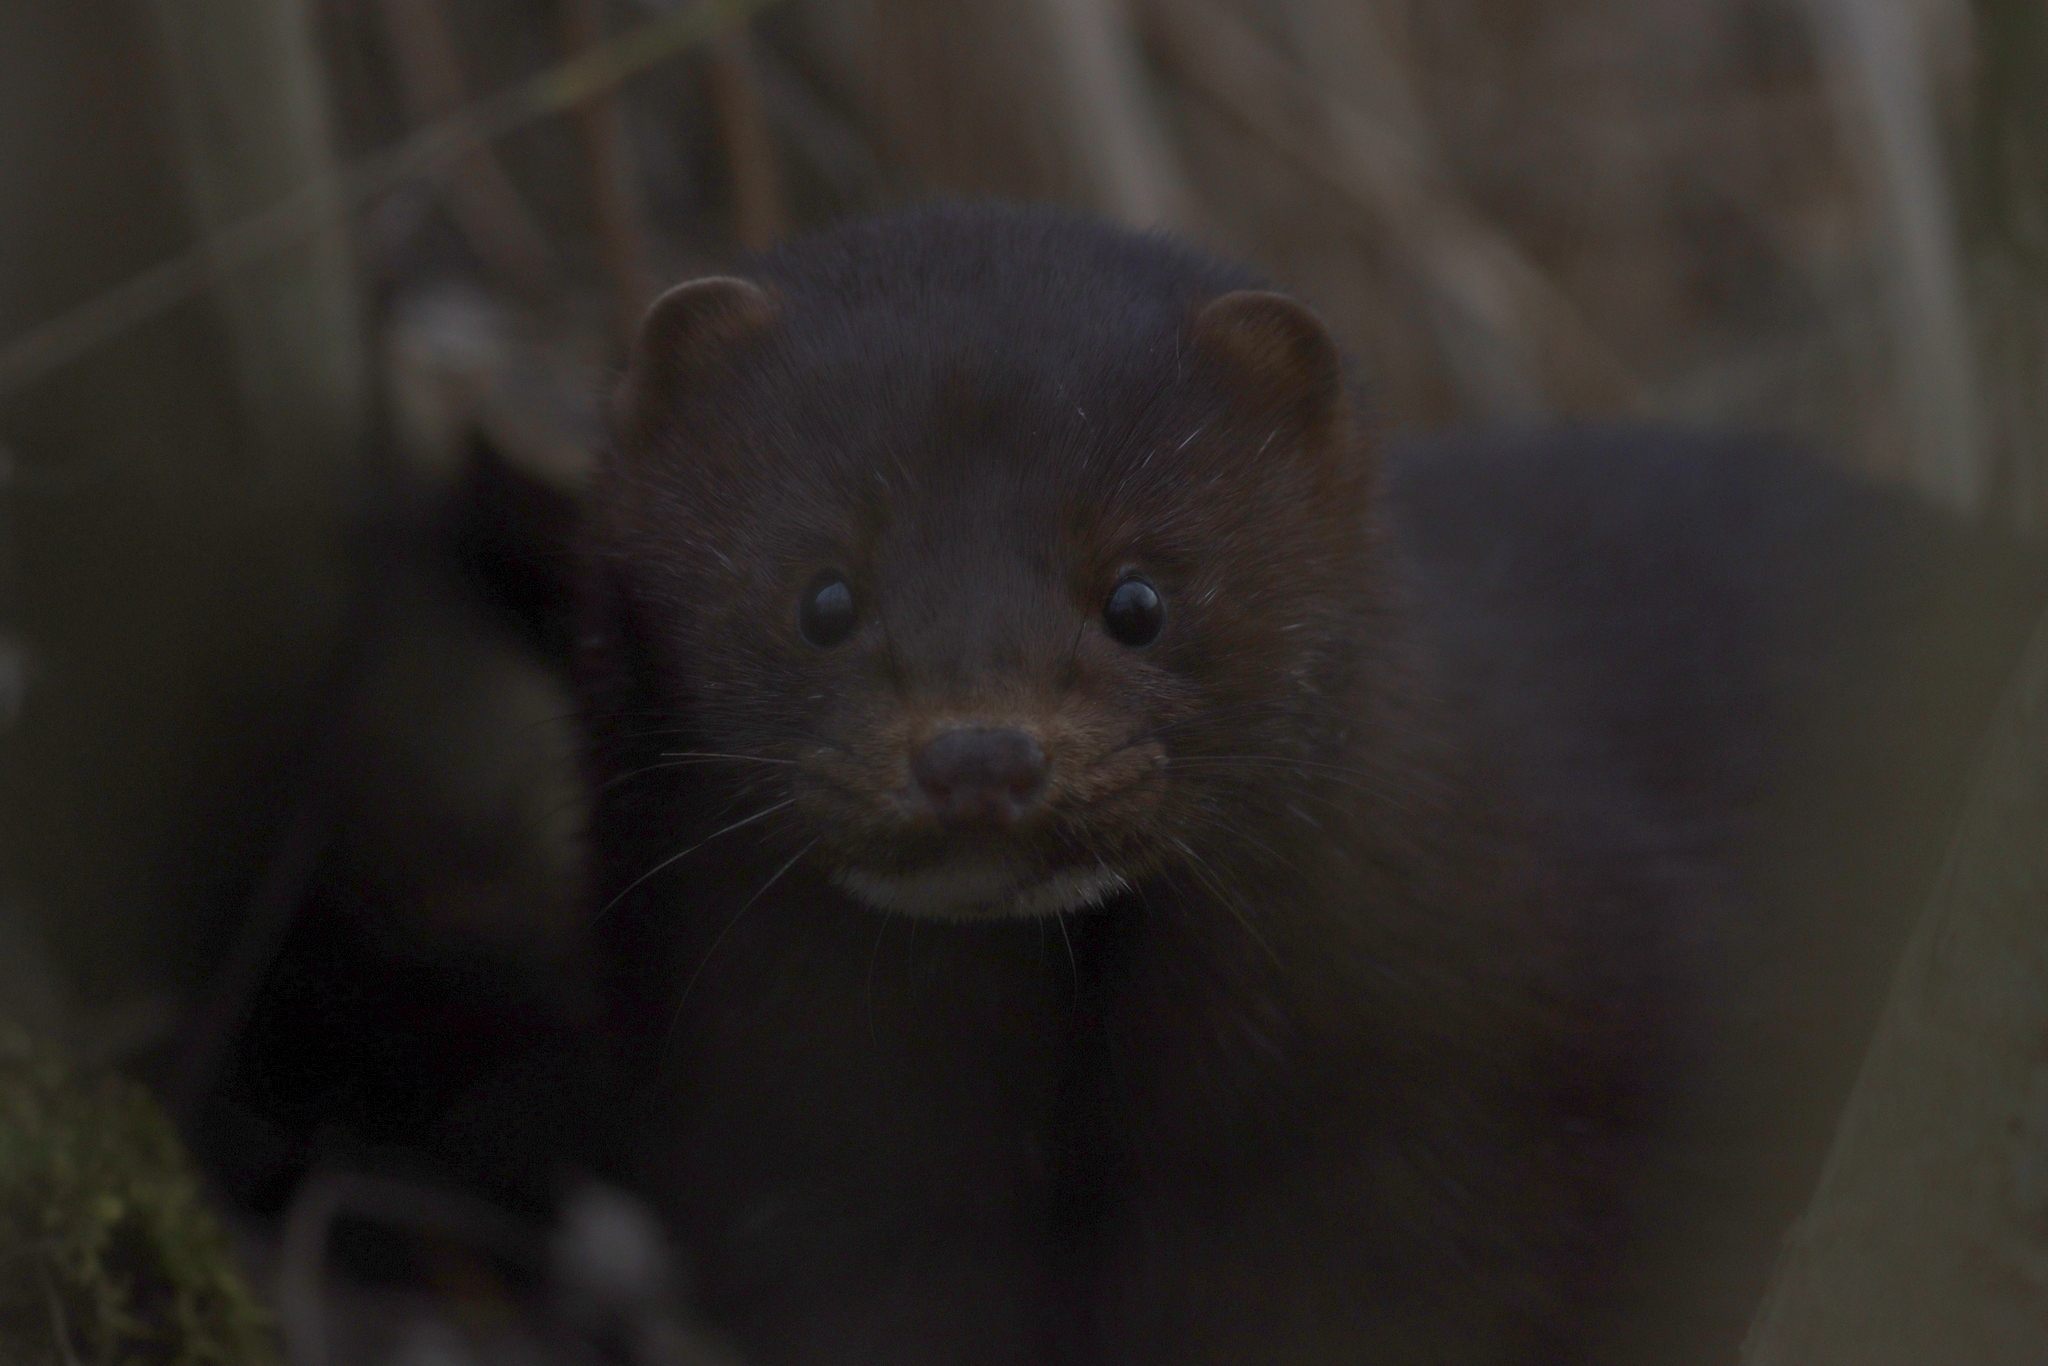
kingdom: Animalia
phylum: Chordata
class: Mammalia
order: Carnivora
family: Mustelidae
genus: Mustela
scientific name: Mustela
